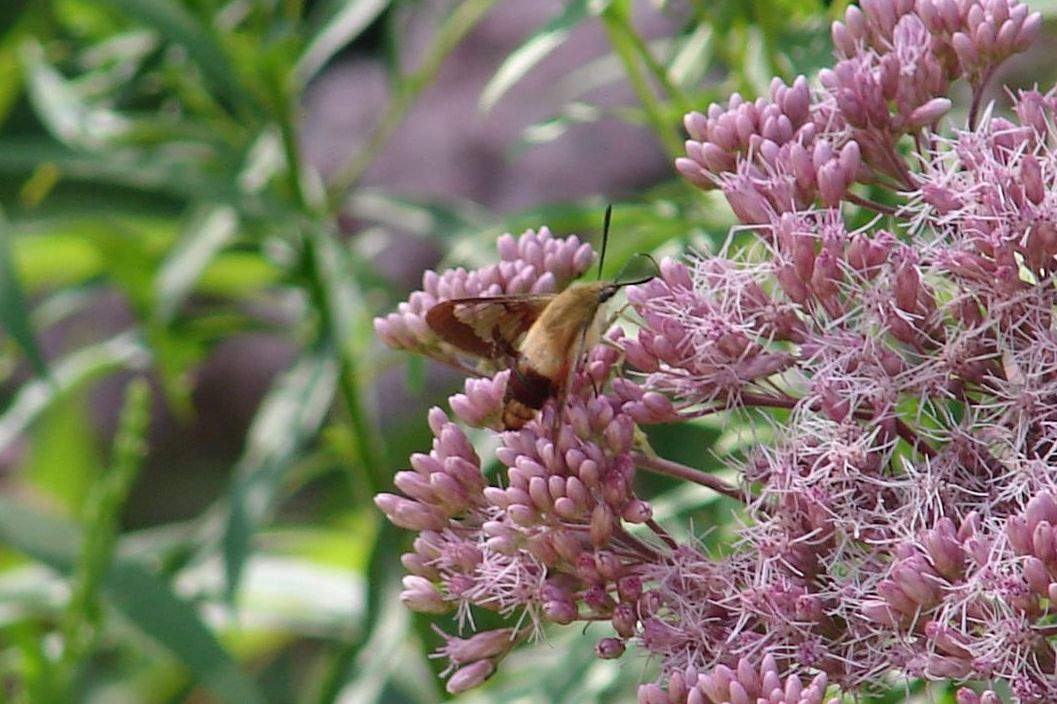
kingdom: Animalia
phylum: Arthropoda
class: Insecta
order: Lepidoptera
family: Sphingidae
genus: Hemaris
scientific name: Hemaris thysbe
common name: Common clear-wing
